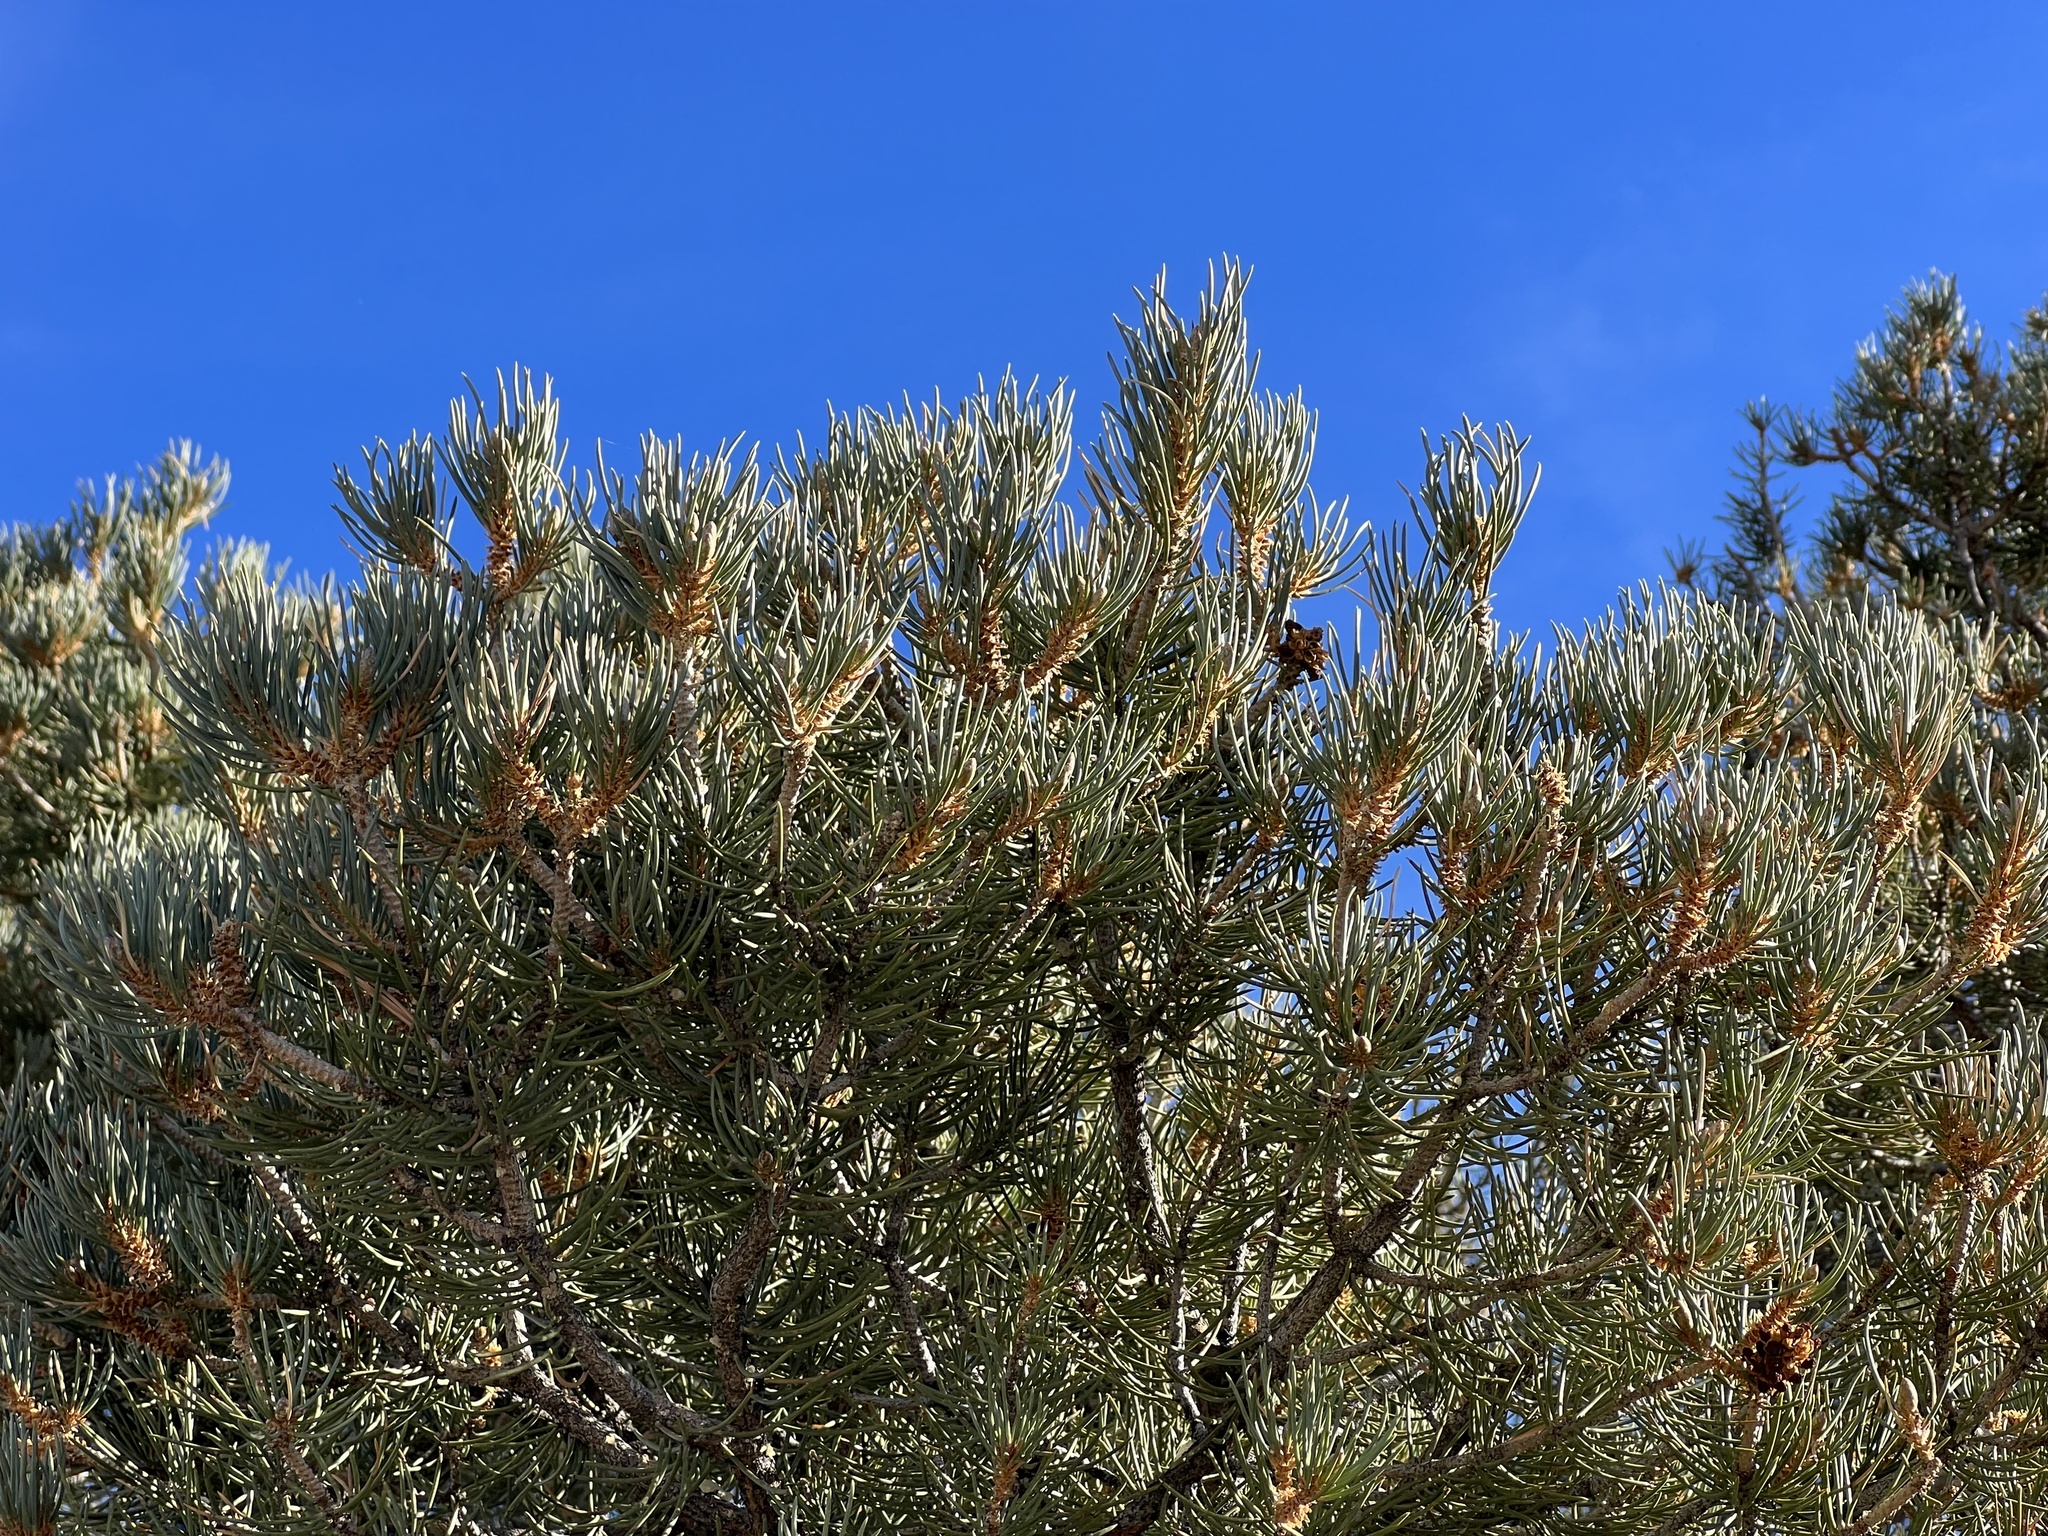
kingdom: Plantae
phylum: Tracheophyta
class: Pinopsida
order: Pinales
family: Pinaceae
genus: Pinus
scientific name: Pinus monophylla
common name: One-leaved nut pine
